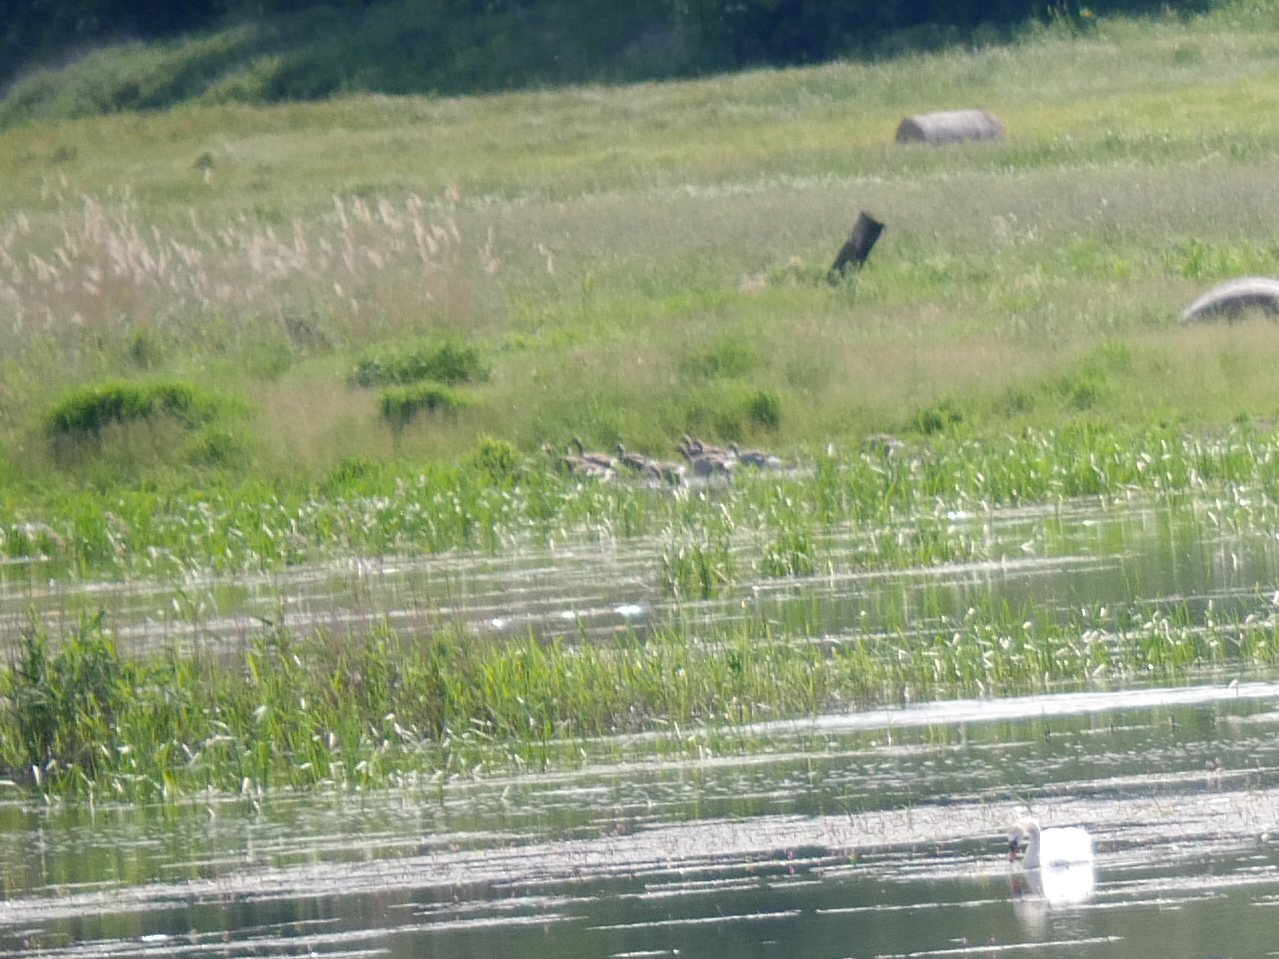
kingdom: Animalia
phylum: Chordata
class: Aves
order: Anseriformes
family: Anatidae
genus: Anser
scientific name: Anser anser
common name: Greylag goose
